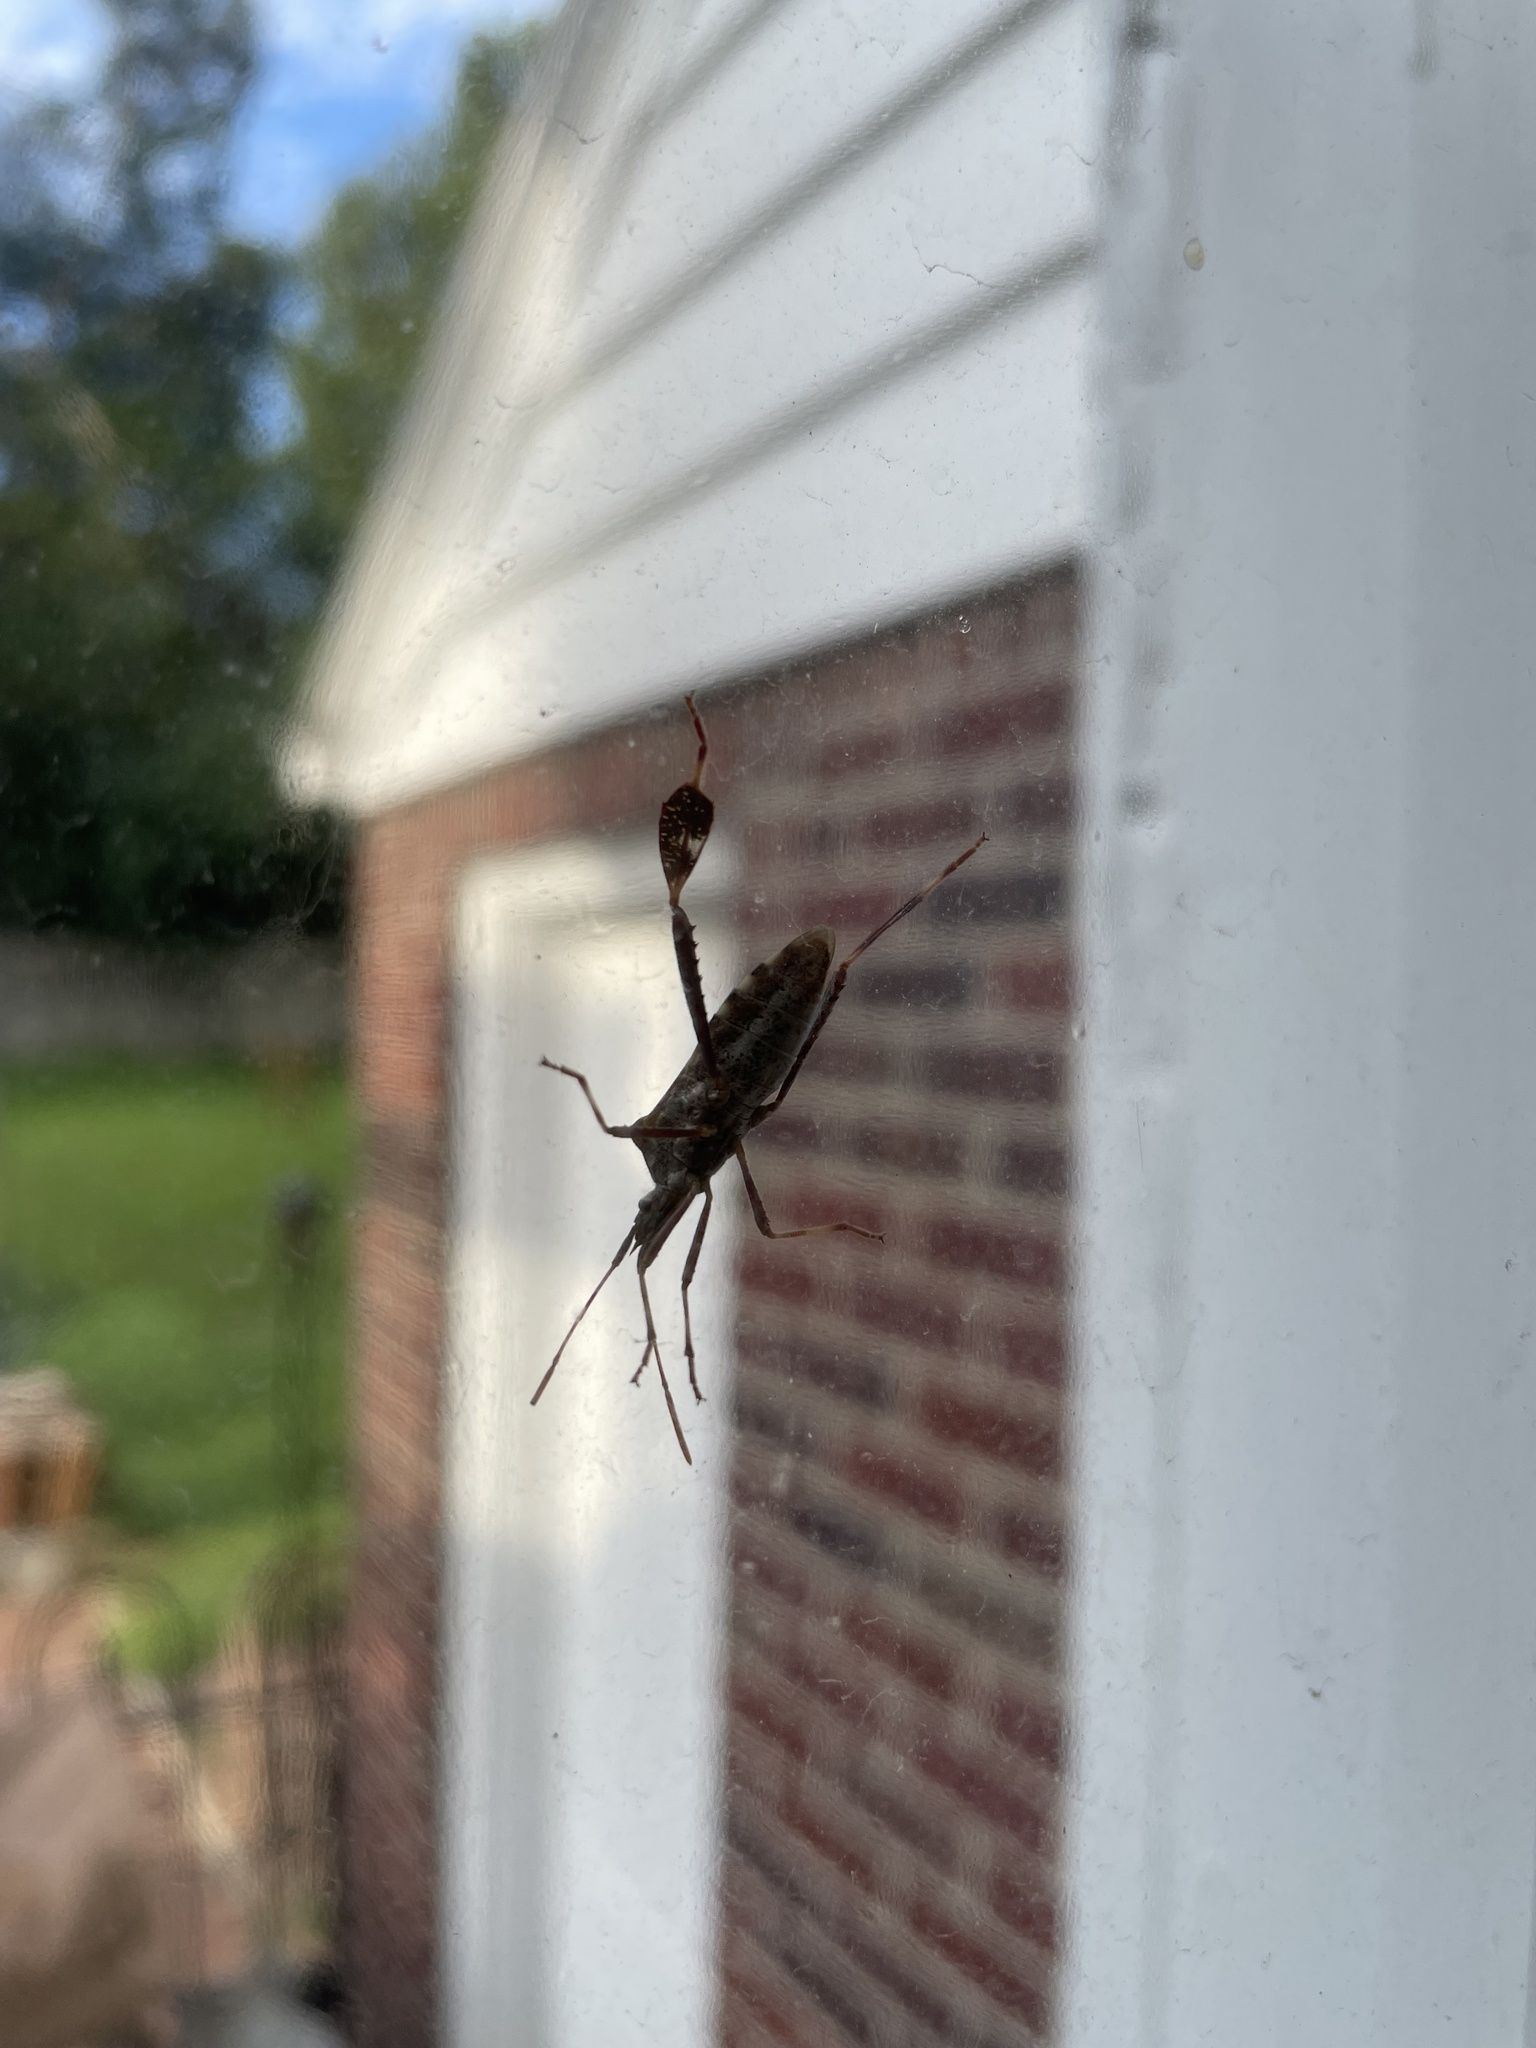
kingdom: Animalia
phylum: Arthropoda
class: Insecta
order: Hemiptera
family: Coreidae
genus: Leptoglossus
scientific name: Leptoglossus clypealis
